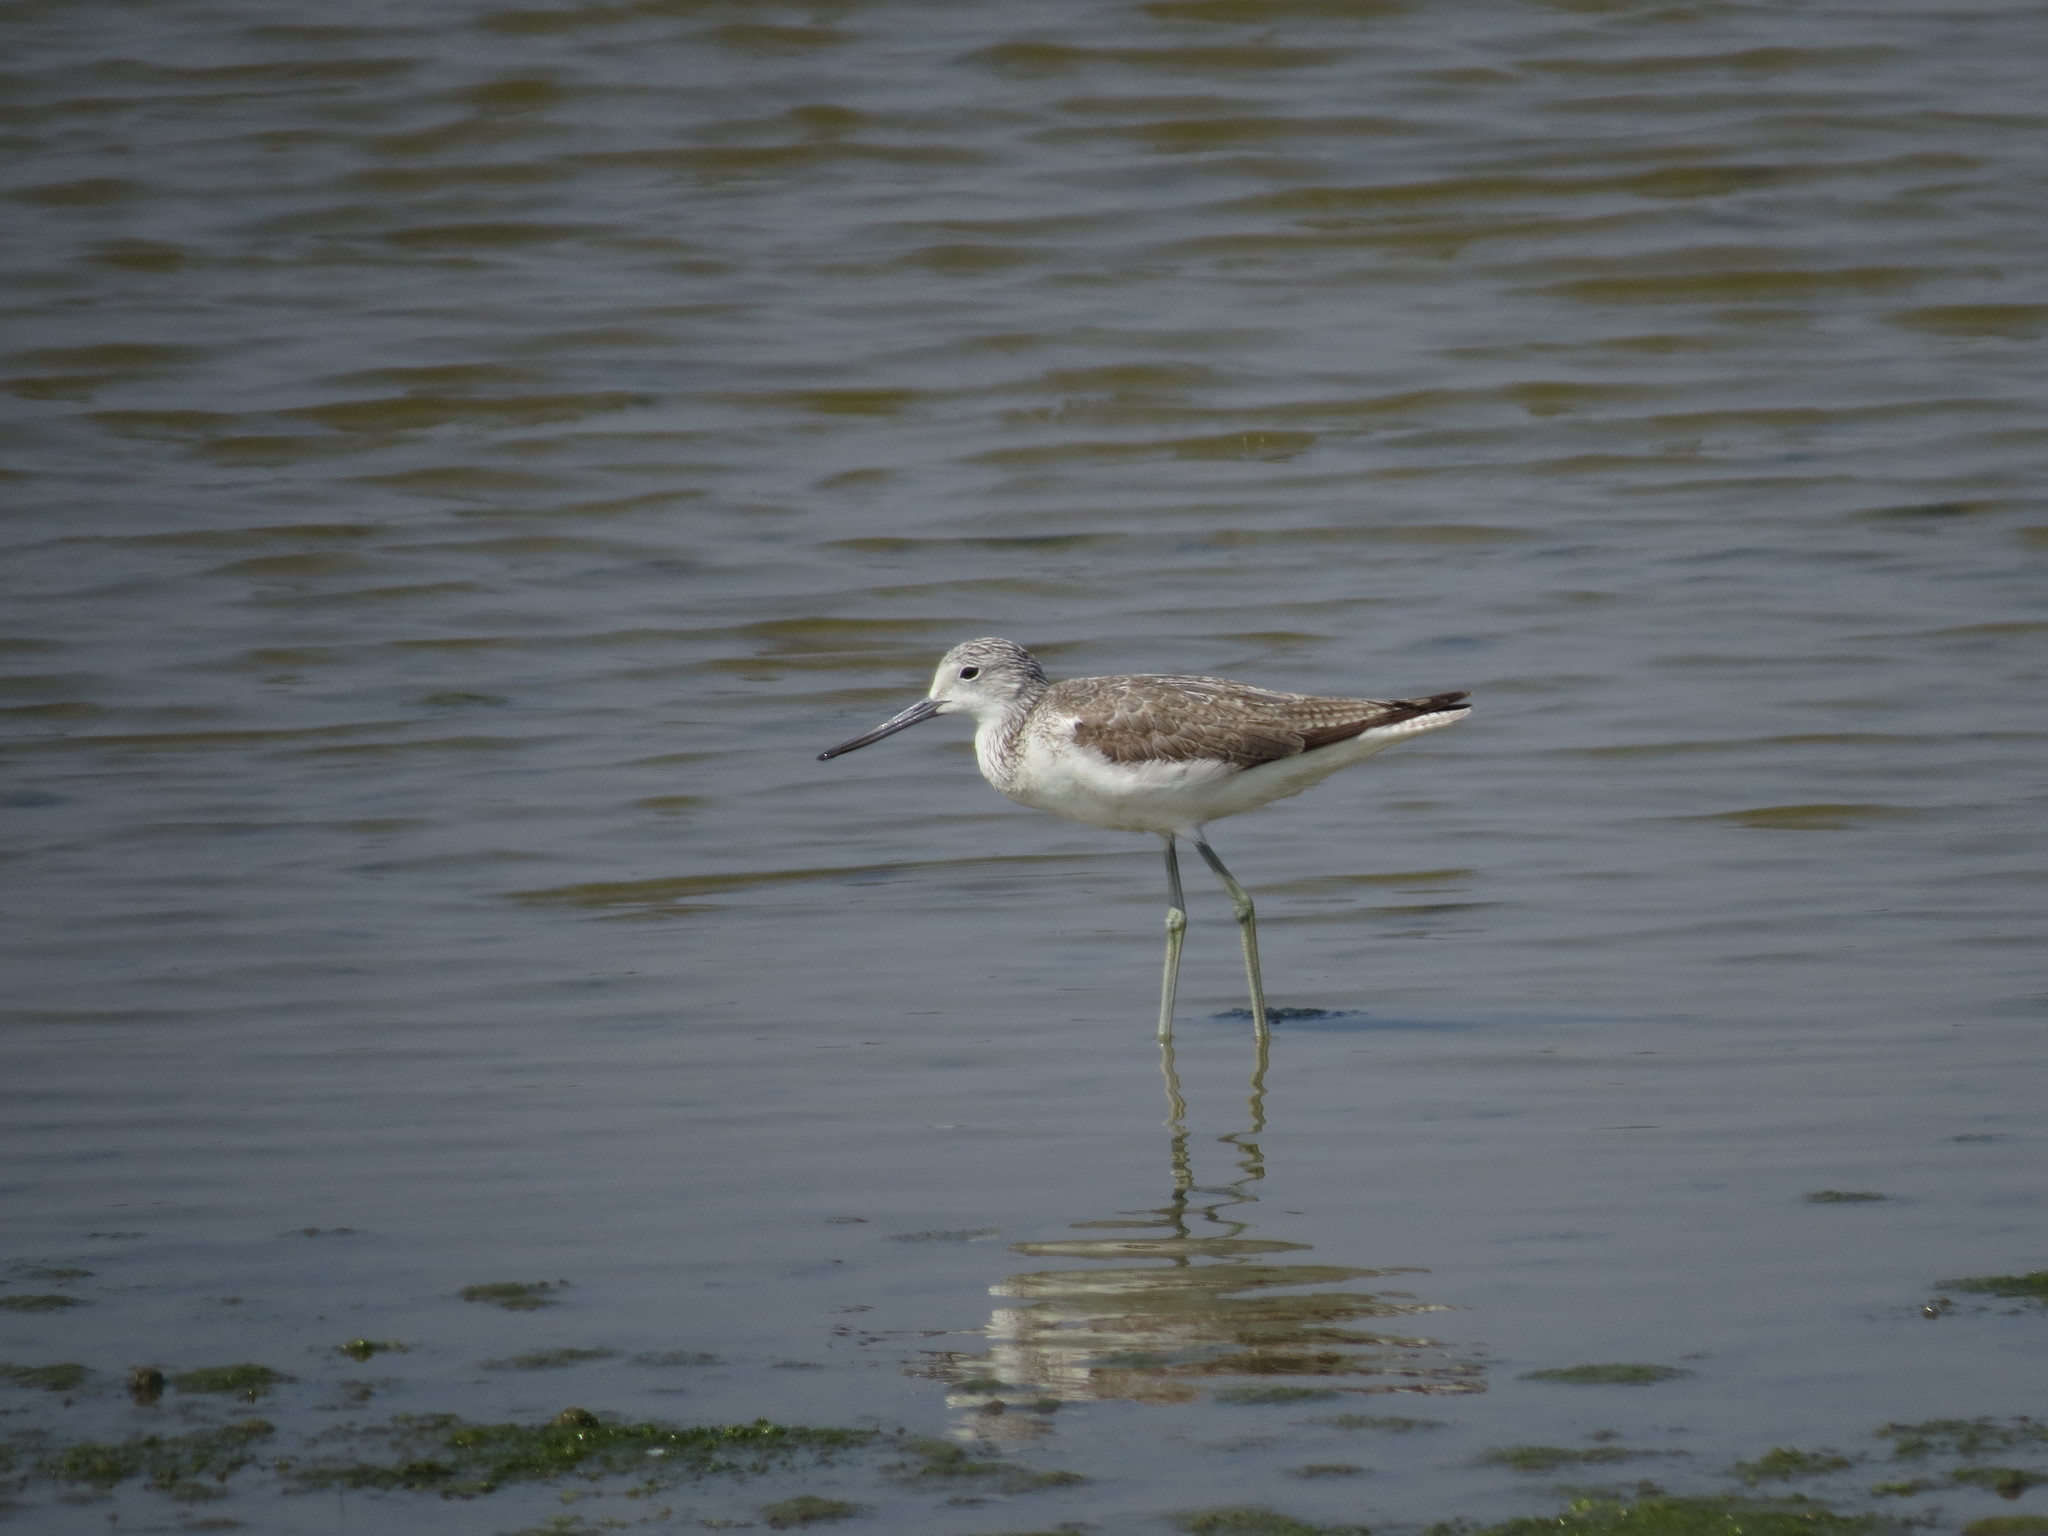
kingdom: Animalia
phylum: Chordata
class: Aves
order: Charadriiformes
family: Scolopacidae
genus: Tringa
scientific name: Tringa nebularia
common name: Common greenshank
